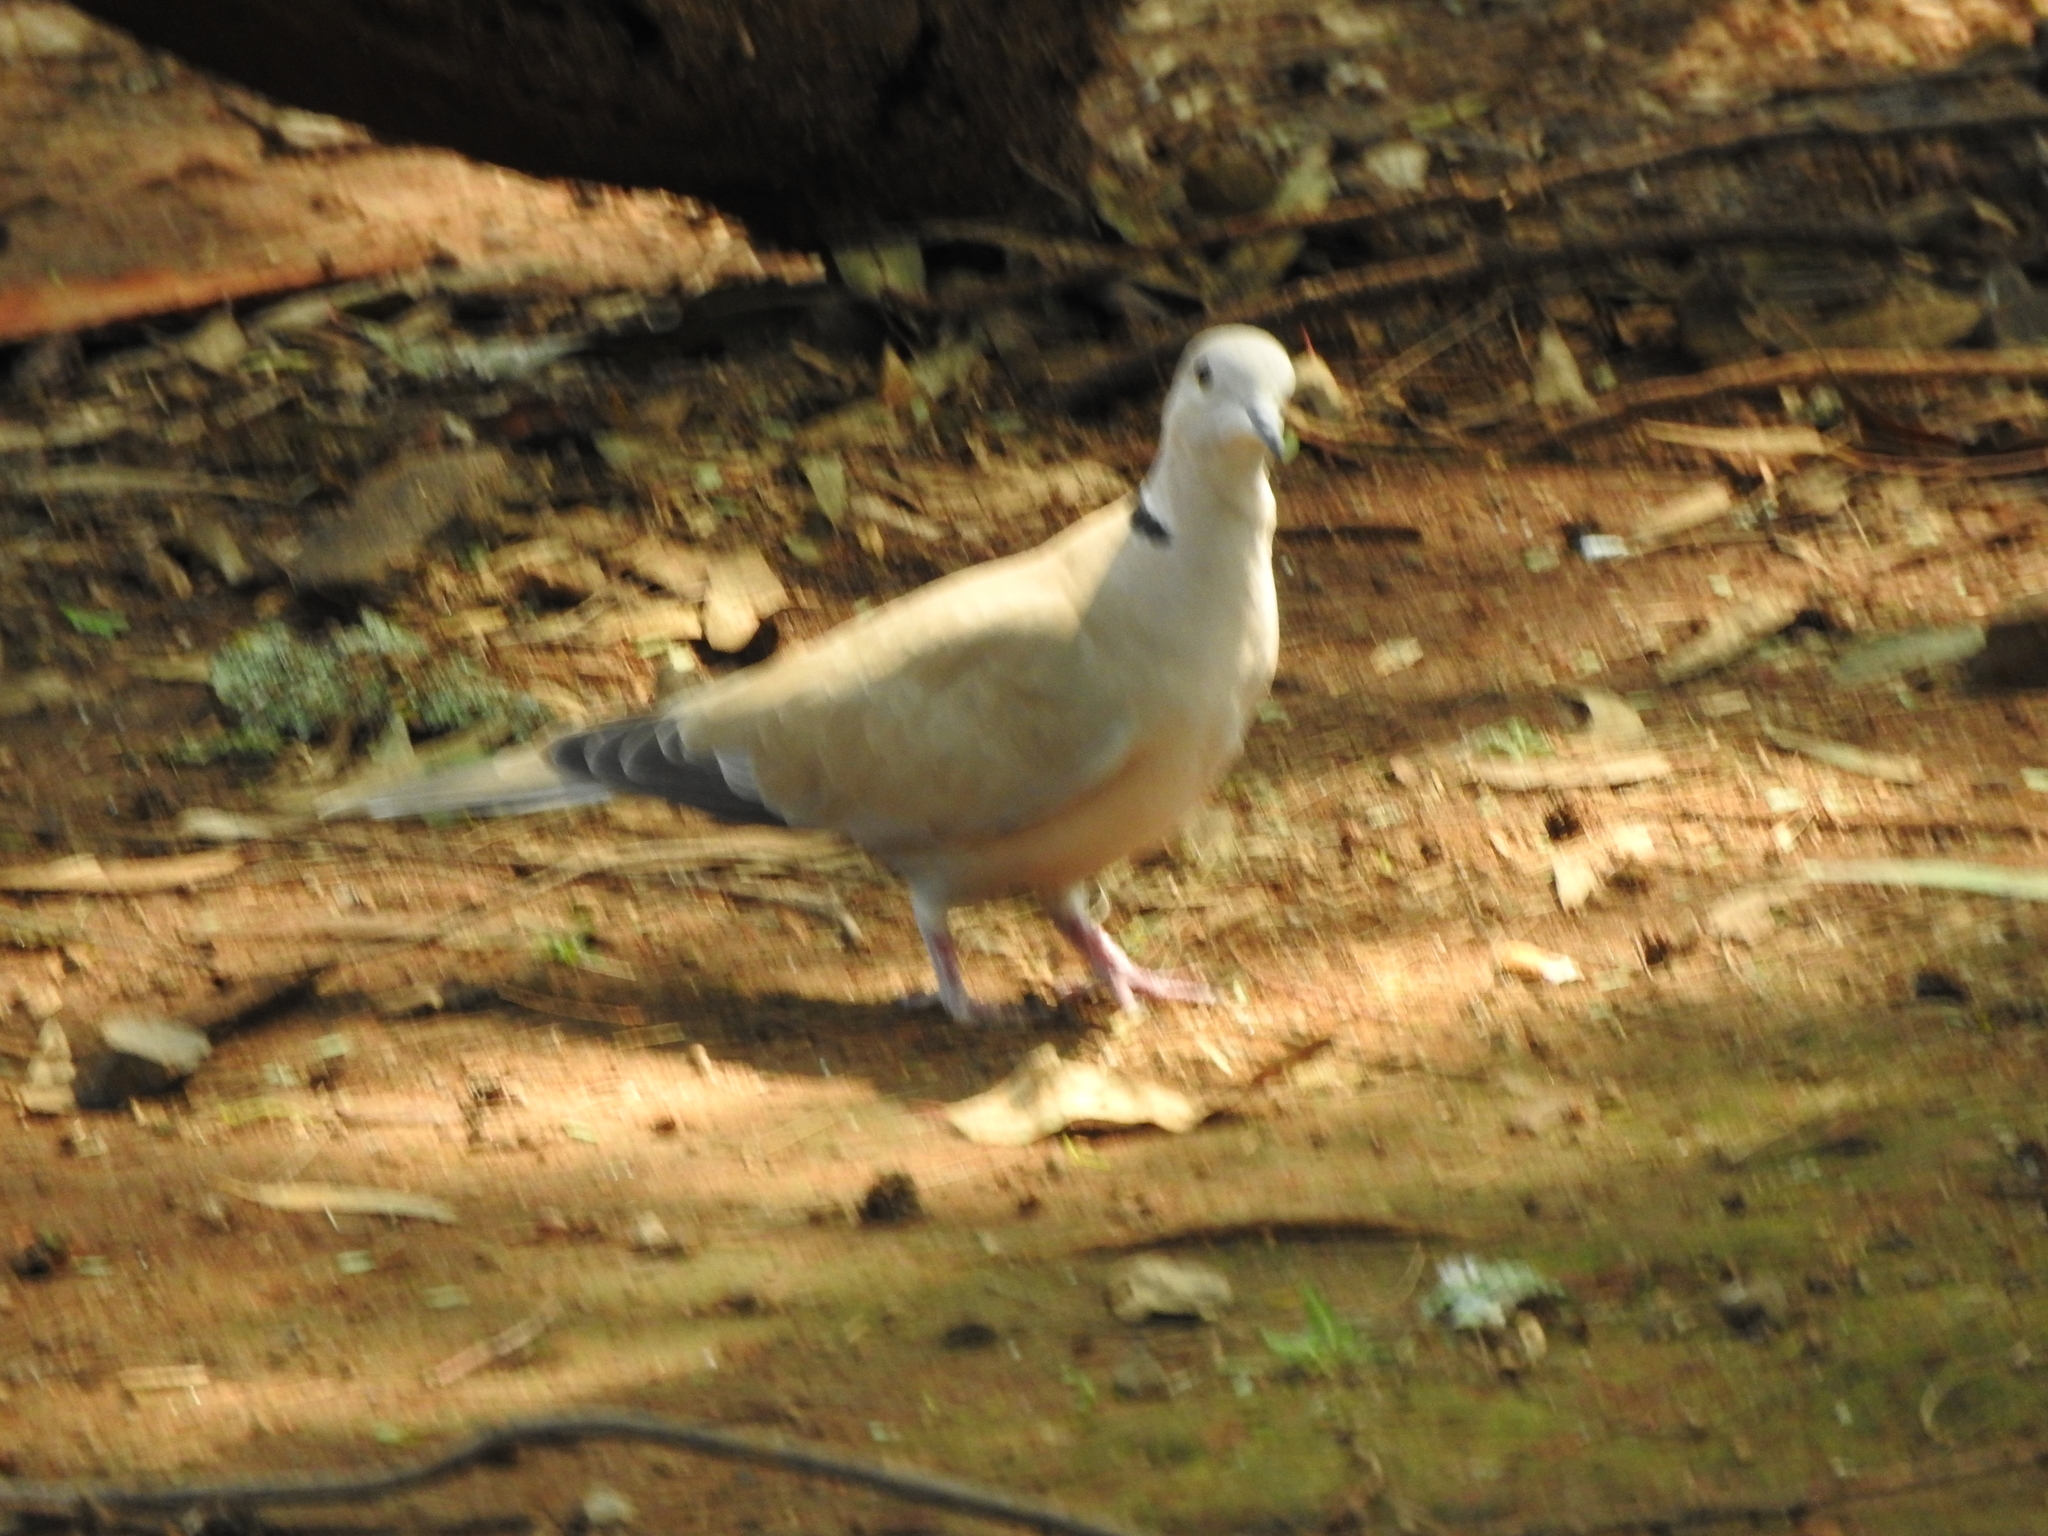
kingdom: Animalia
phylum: Chordata
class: Aves
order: Columbiformes
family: Columbidae
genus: Streptopelia
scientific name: Streptopelia decaocto
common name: Eurasian collared dove
